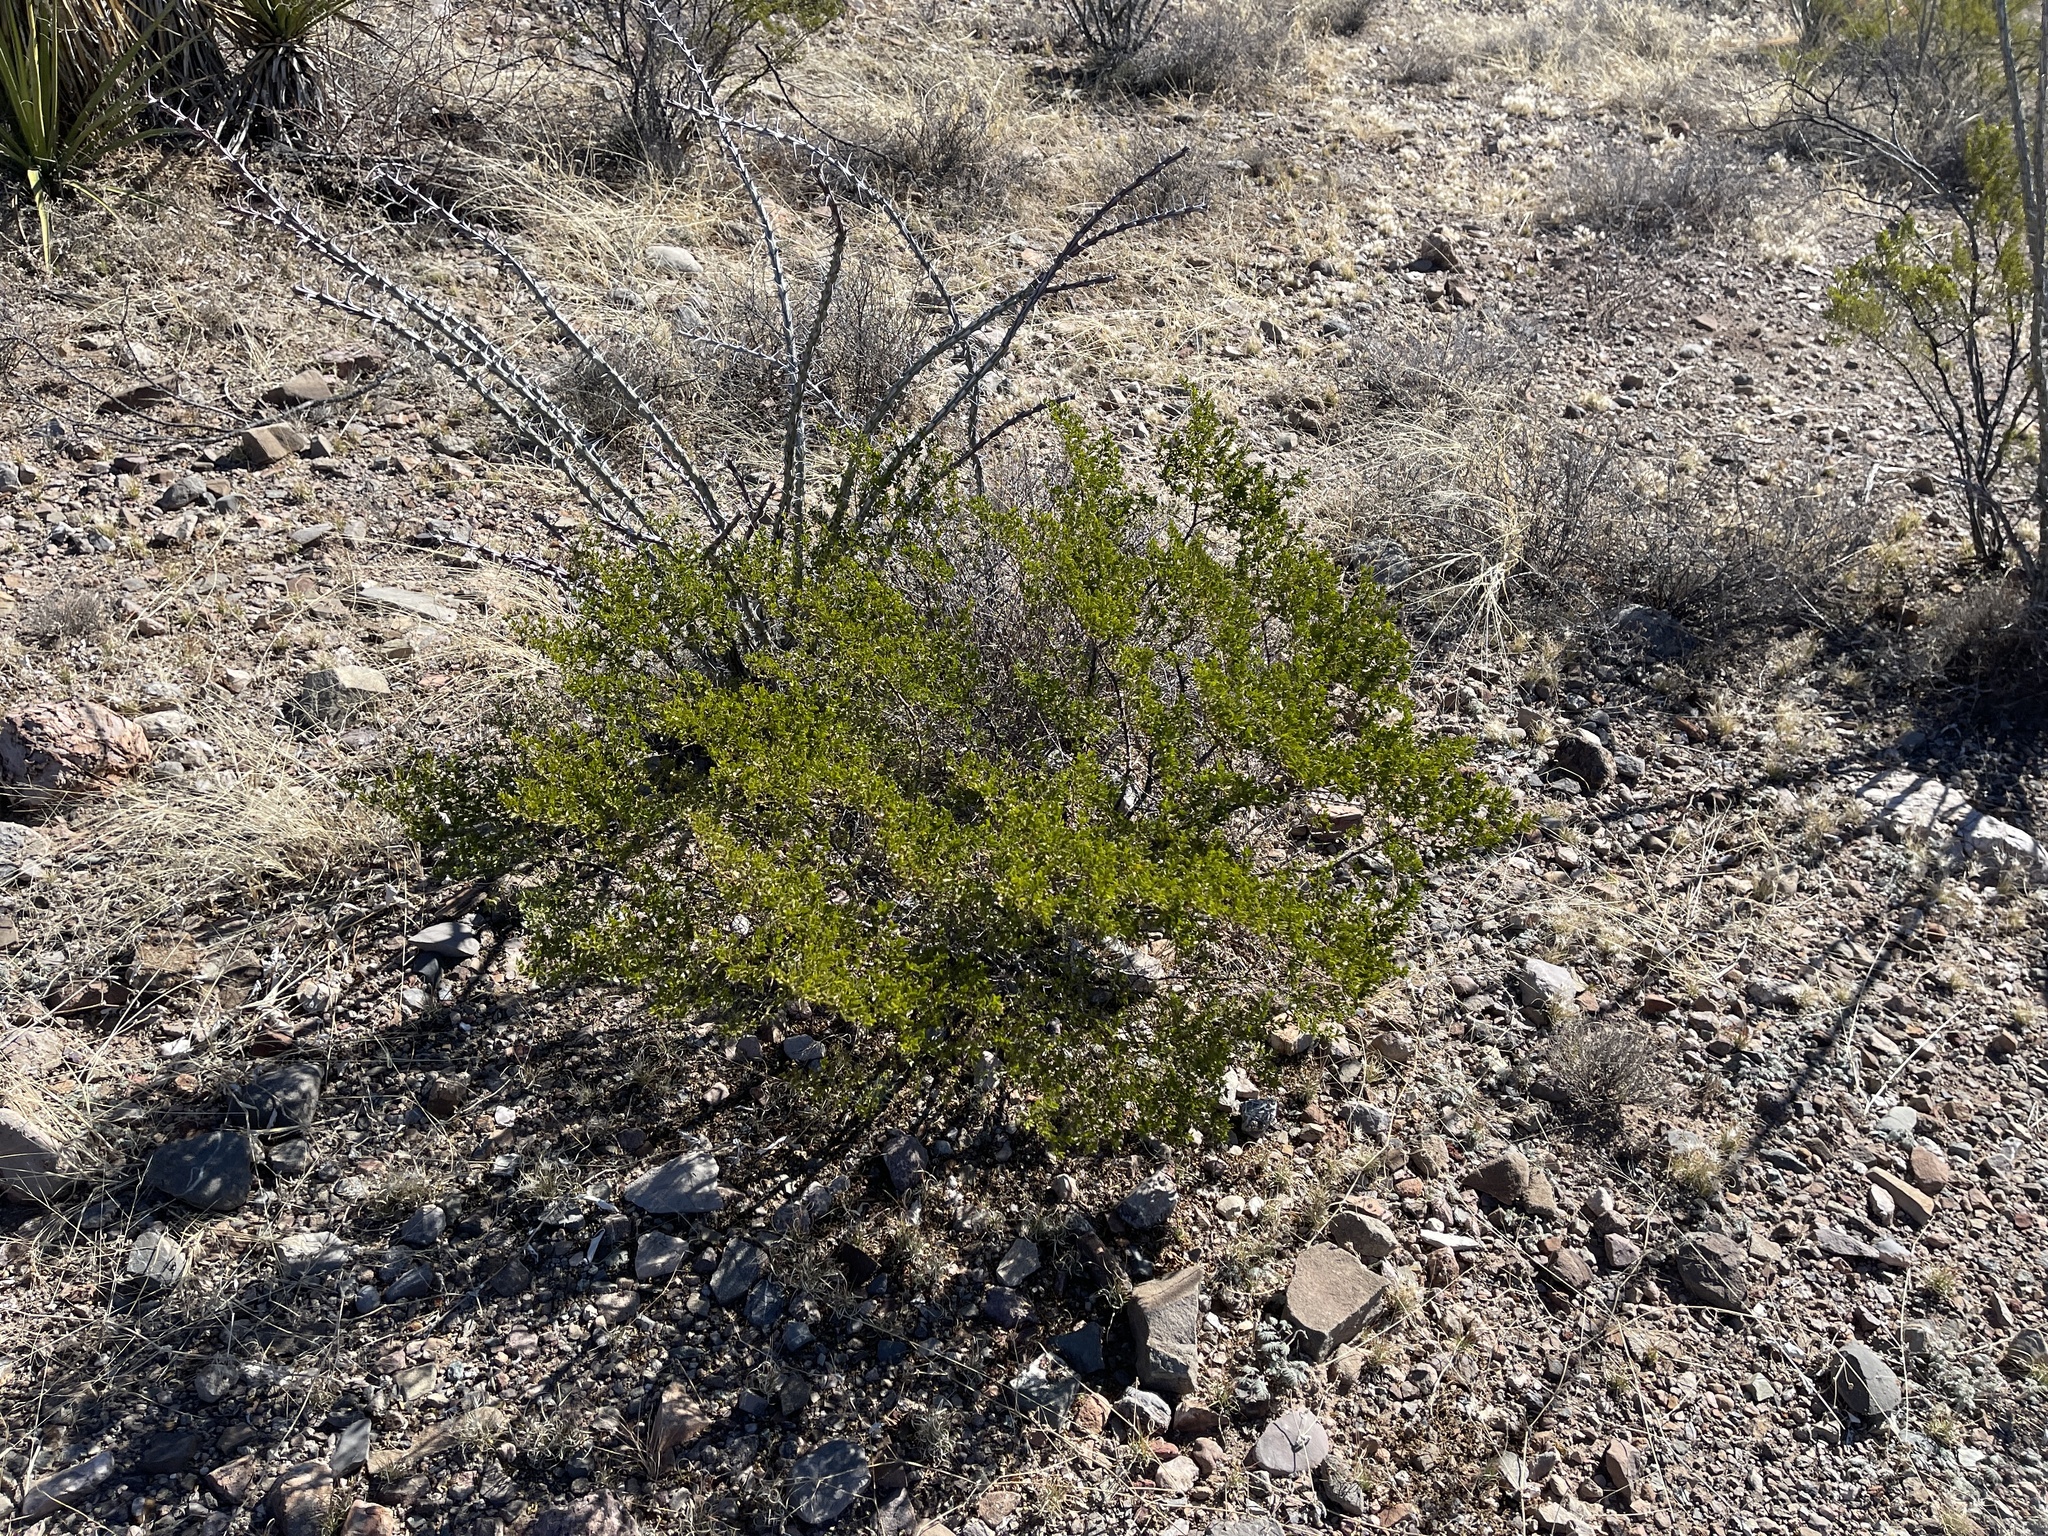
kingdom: Plantae
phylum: Tracheophyta
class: Magnoliopsida
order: Zygophyllales
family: Zygophyllaceae
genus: Larrea
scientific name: Larrea tridentata
